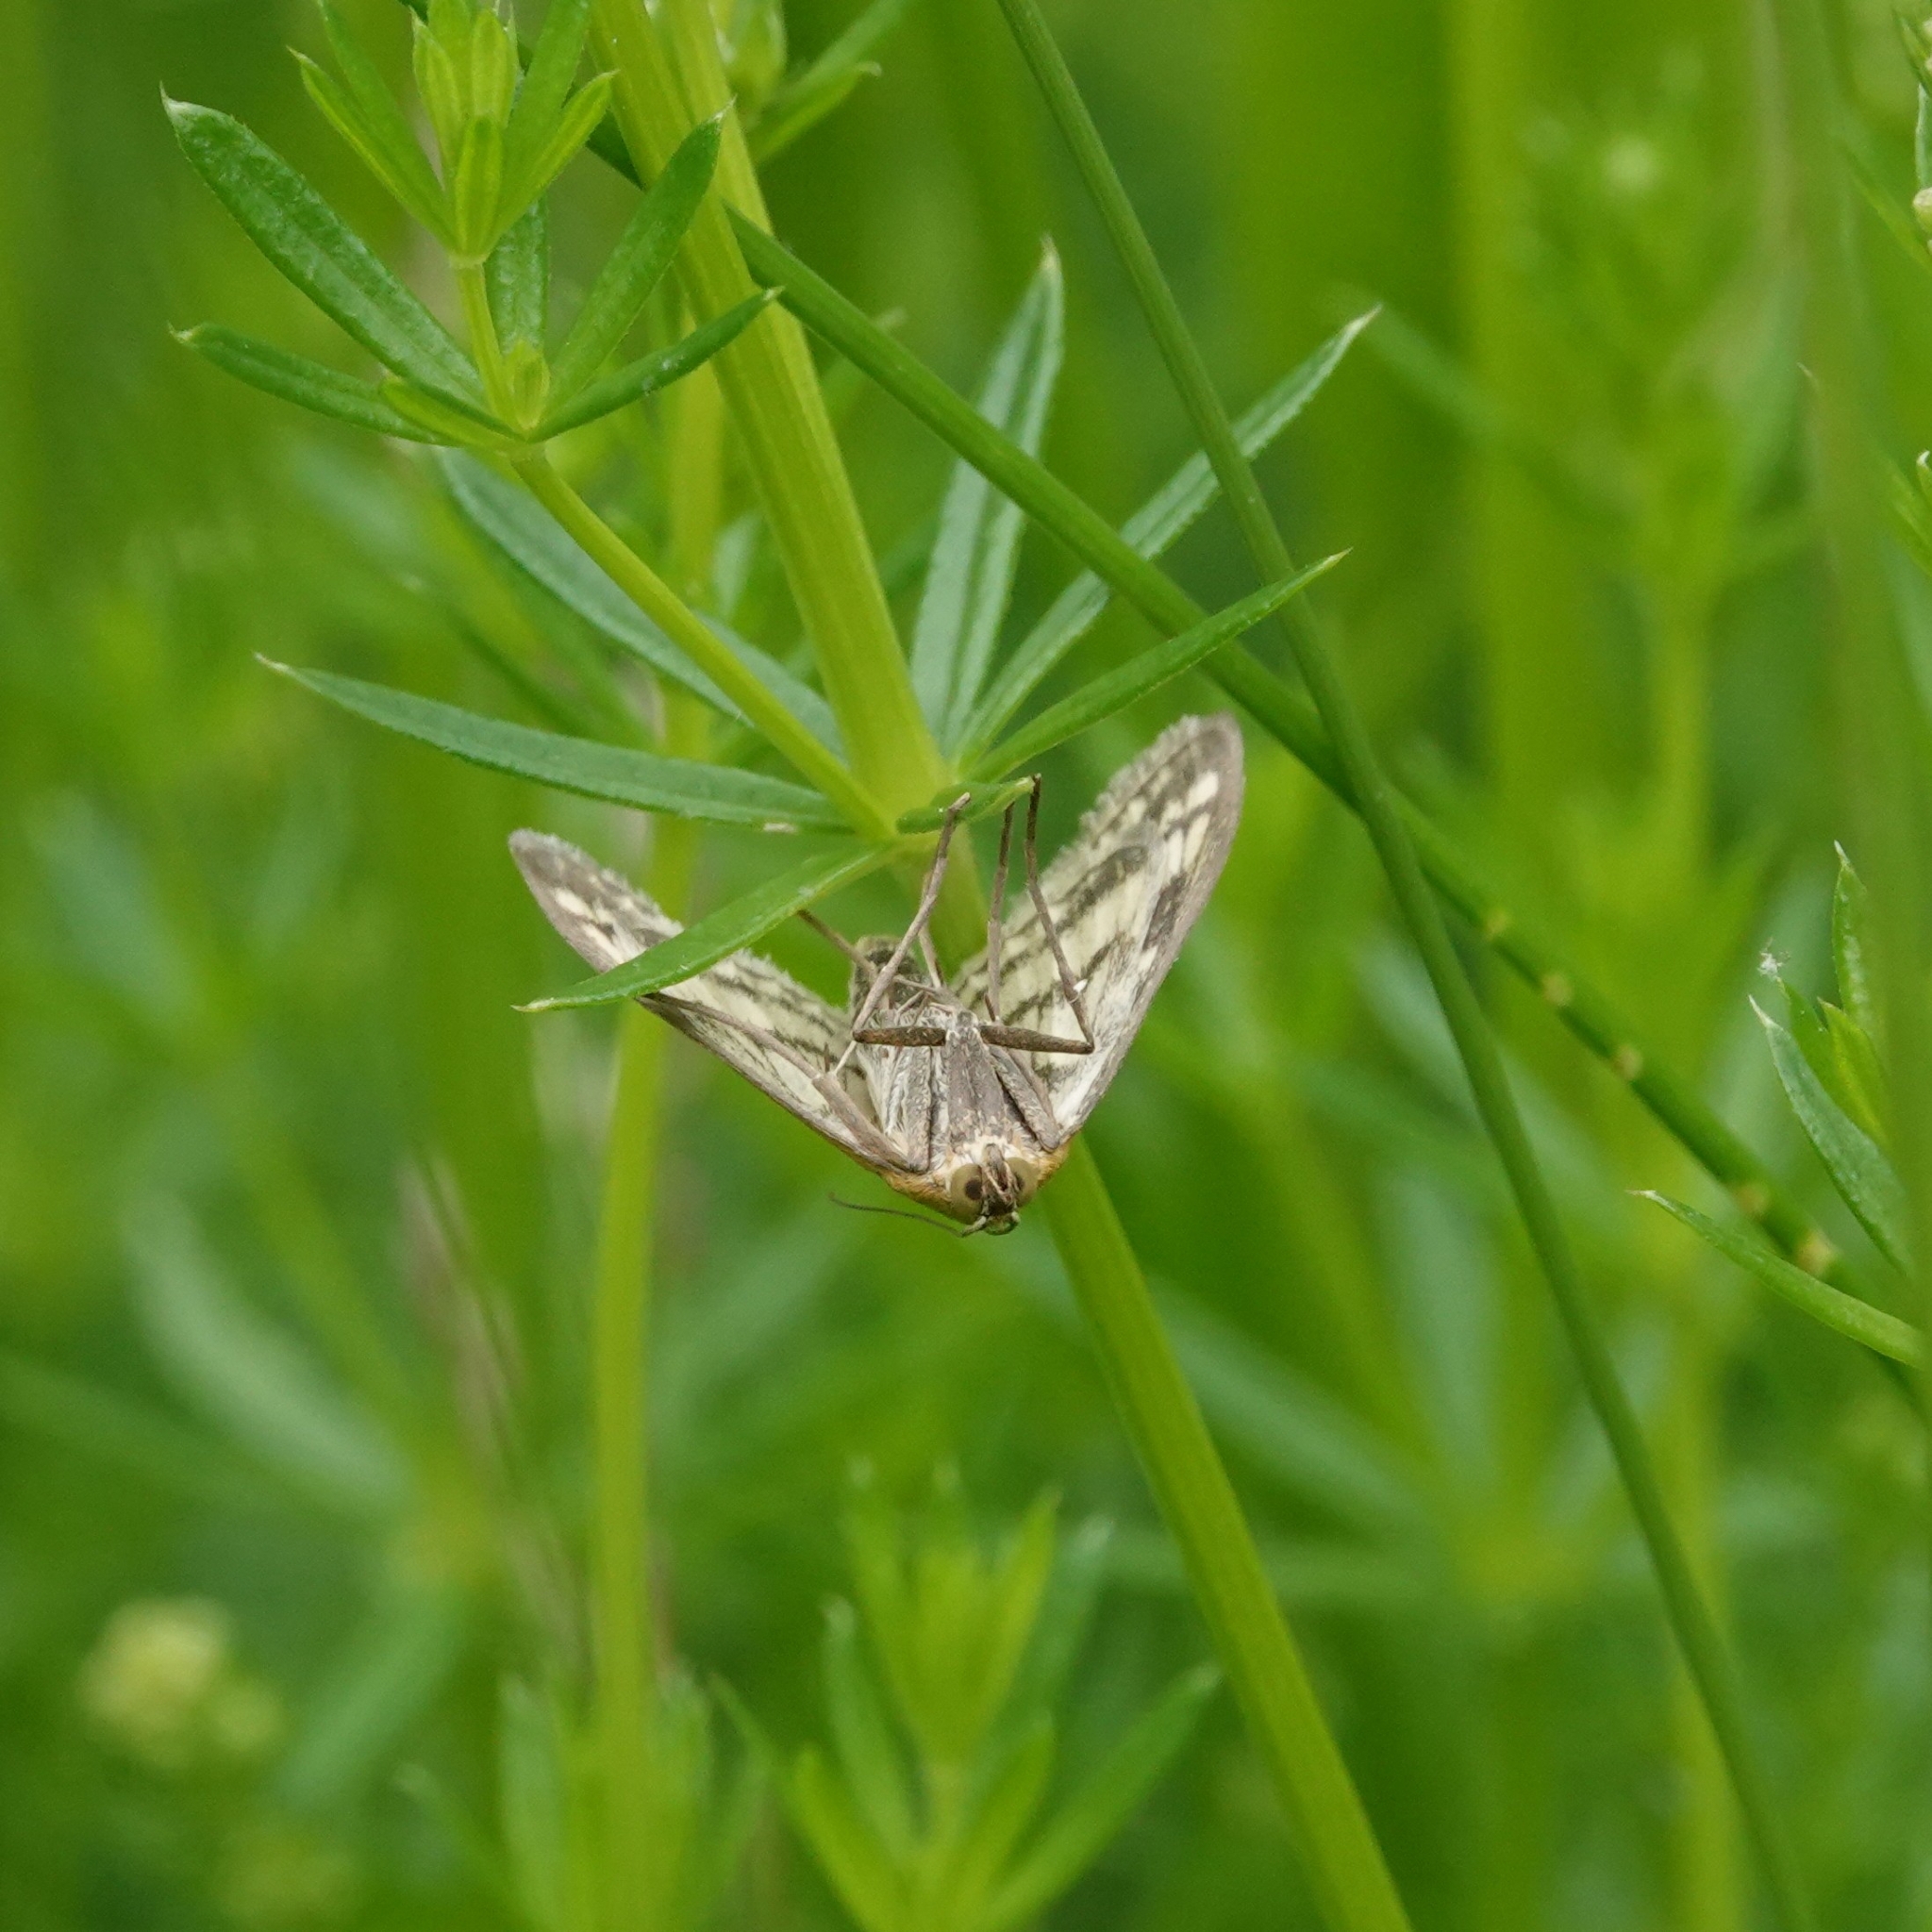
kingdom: Animalia
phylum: Arthropoda
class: Insecta
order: Lepidoptera
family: Crambidae
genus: Sitochroa
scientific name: Sitochroa verticalis
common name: Lesser pearl
